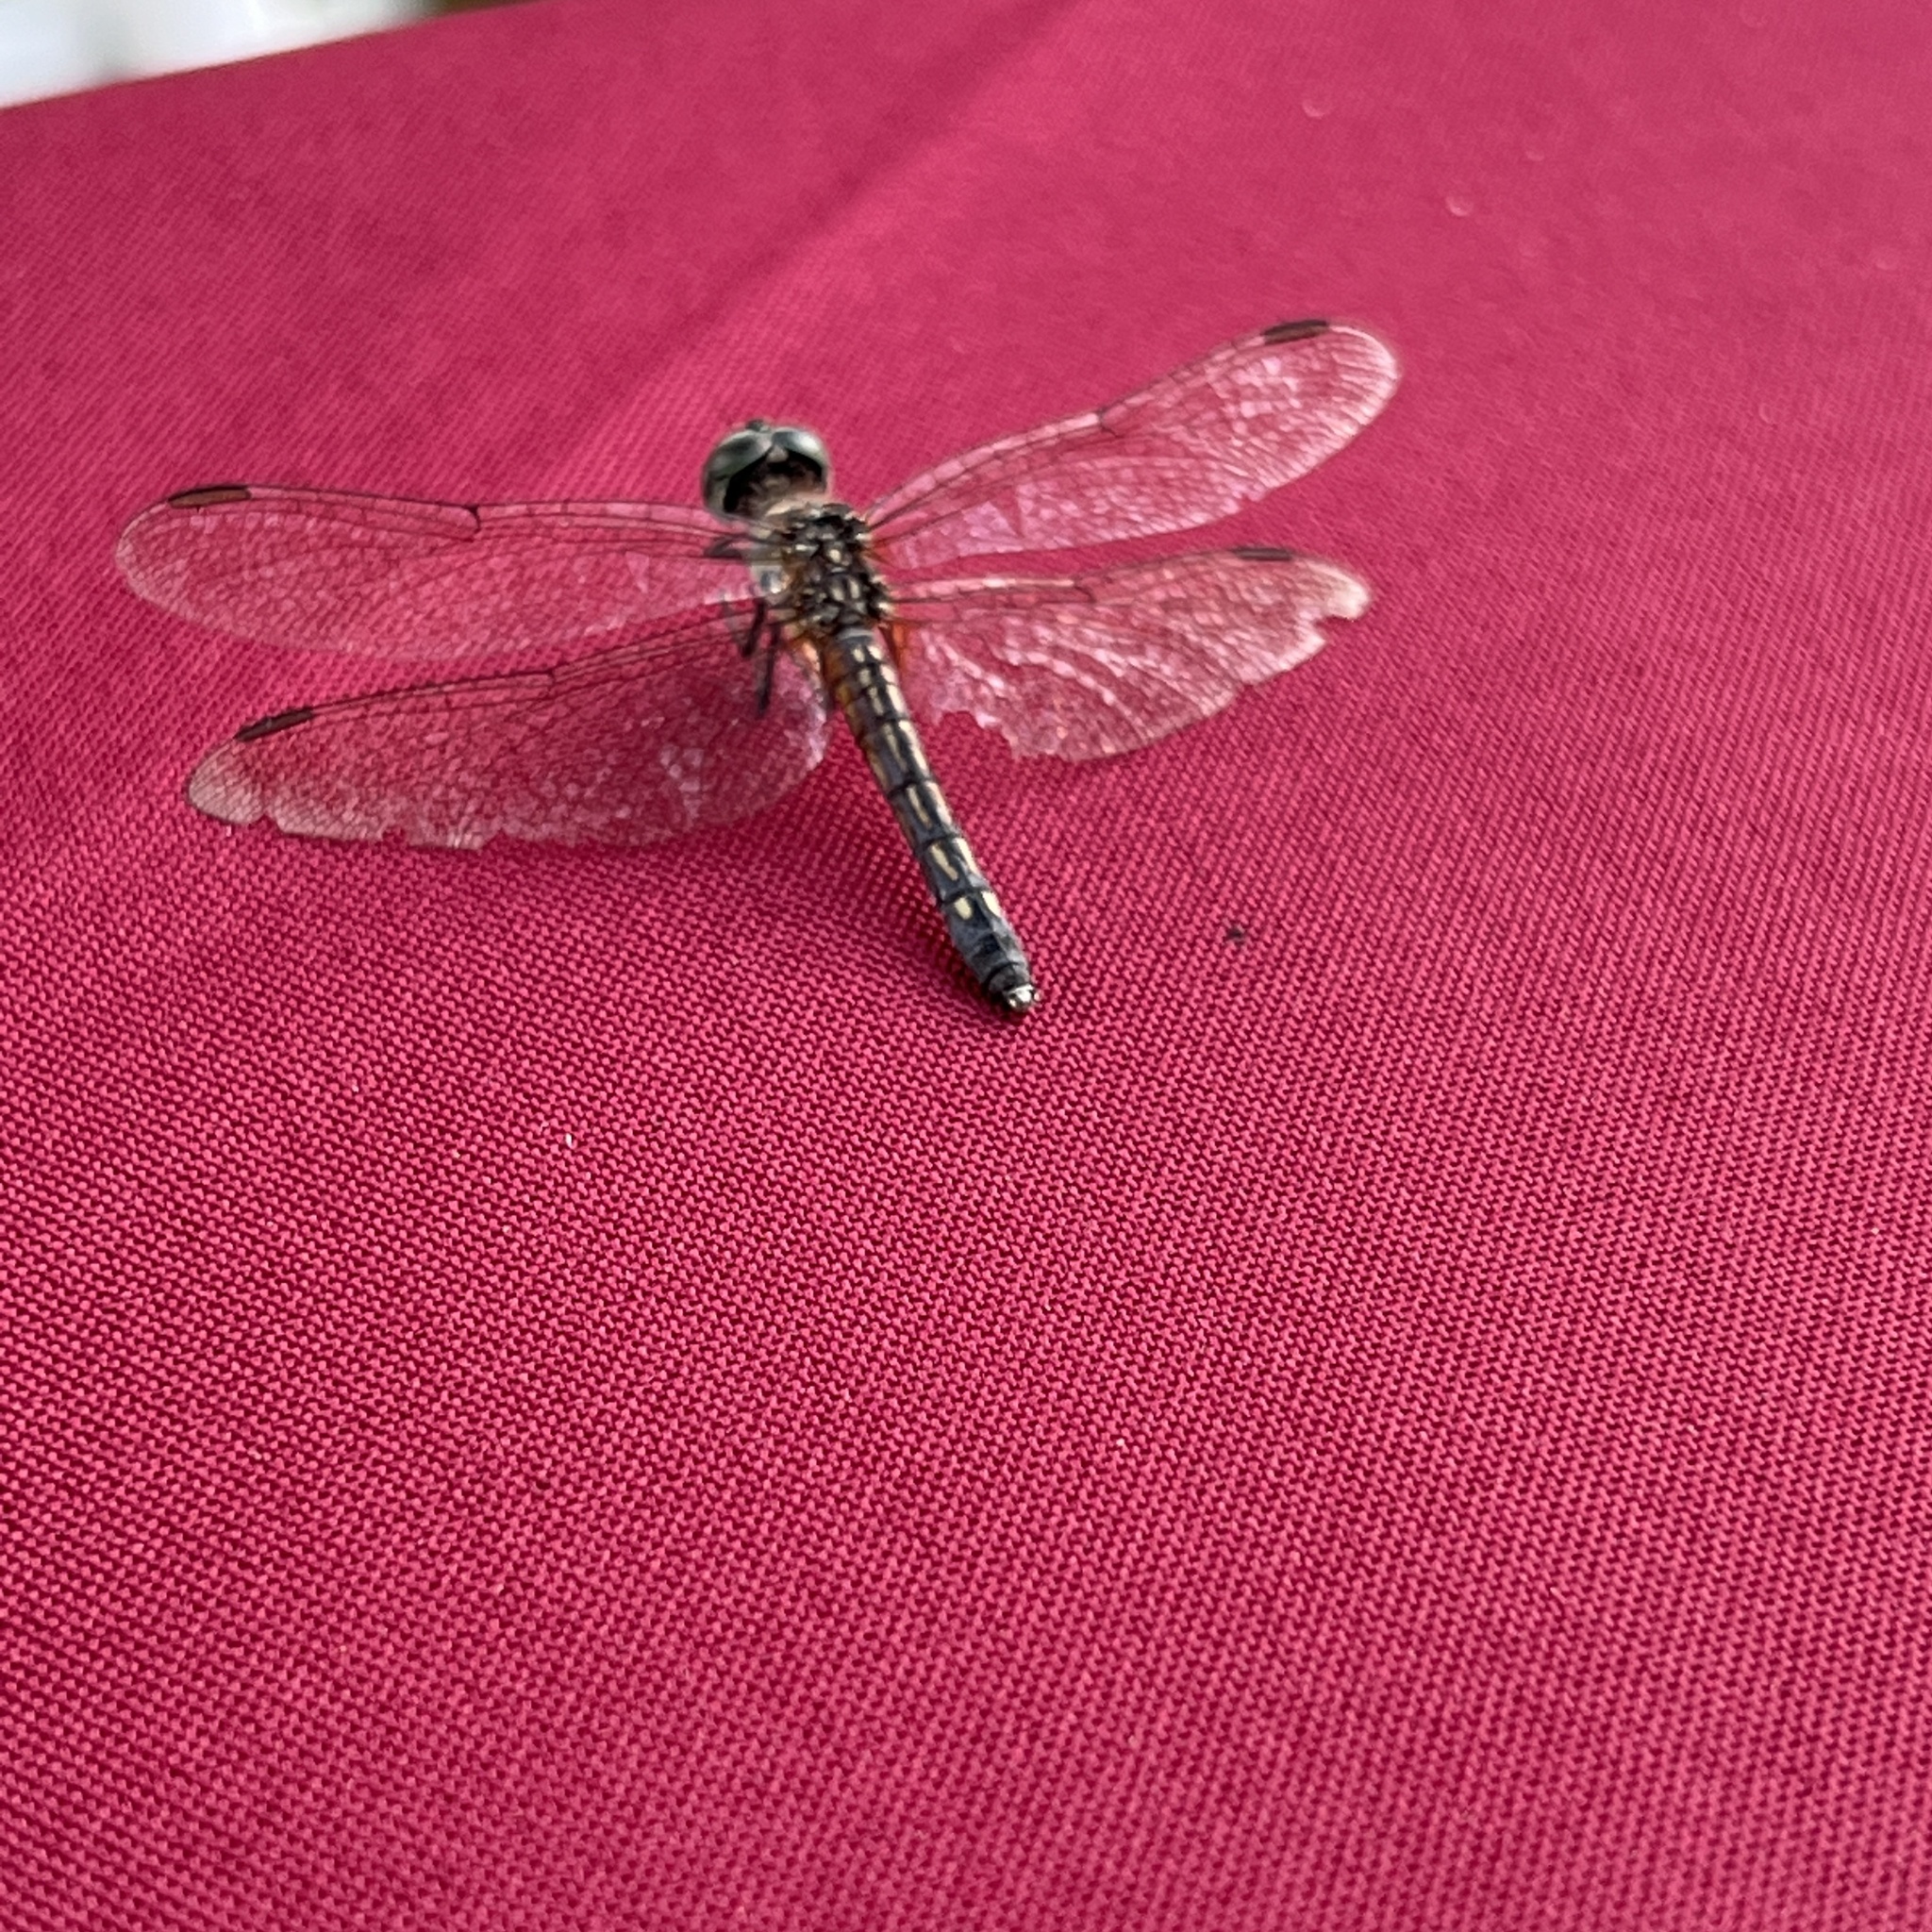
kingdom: Animalia
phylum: Arthropoda
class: Insecta
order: Odonata
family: Libellulidae
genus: Pachydiplax
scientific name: Pachydiplax longipennis
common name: Blue dasher
